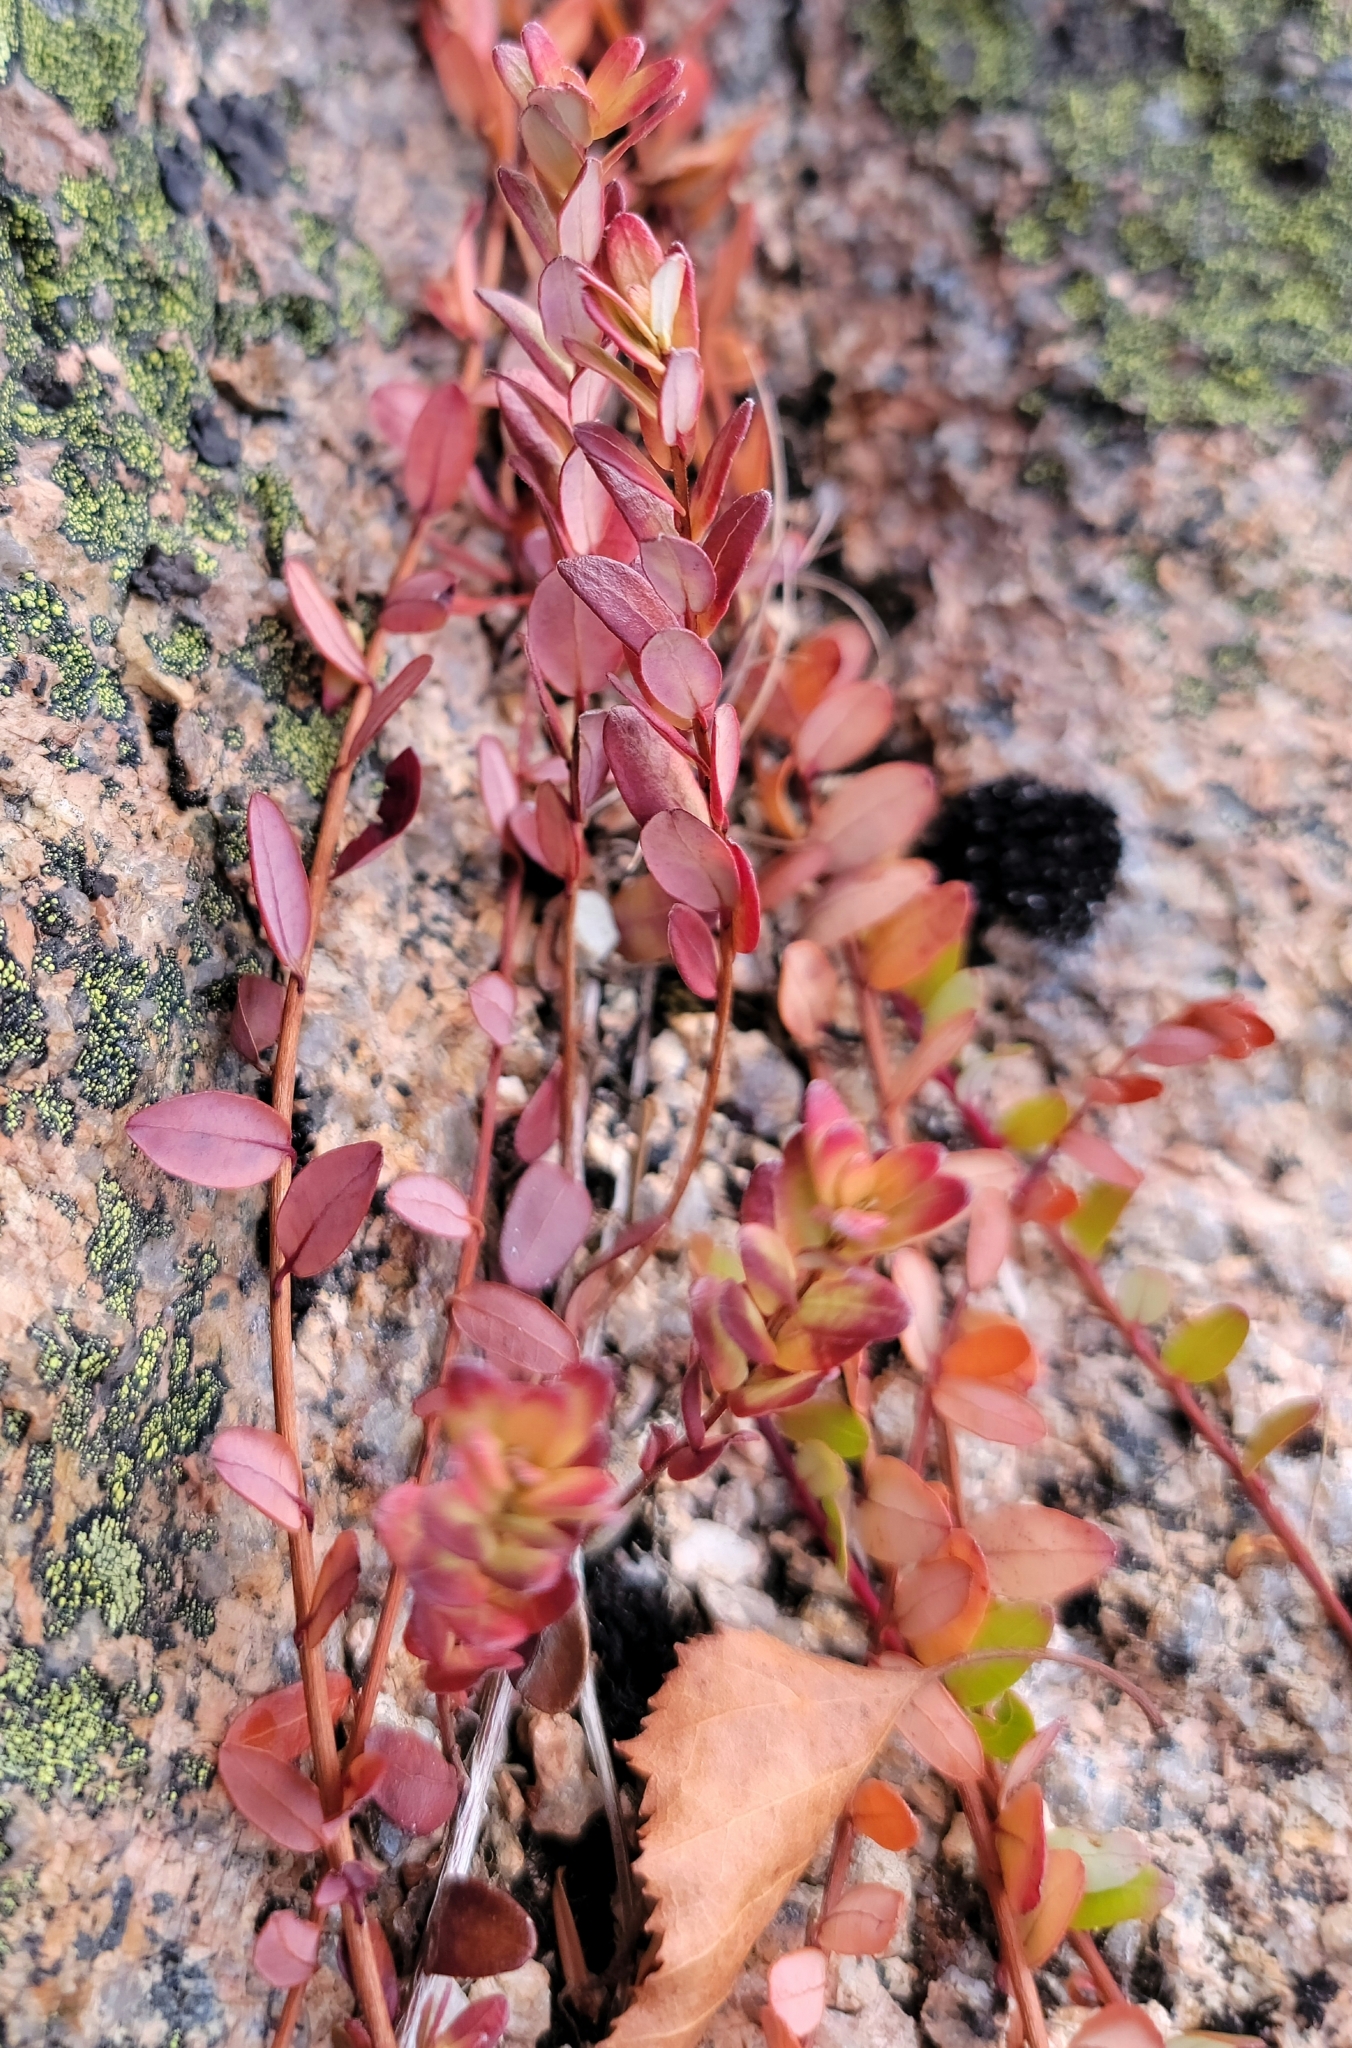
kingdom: Plantae
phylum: Tracheophyta
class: Magnoliopsida
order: Ericales
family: Ericaceae
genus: Vaccinium
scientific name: Vaccinium macrocarpon
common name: American cranberry
